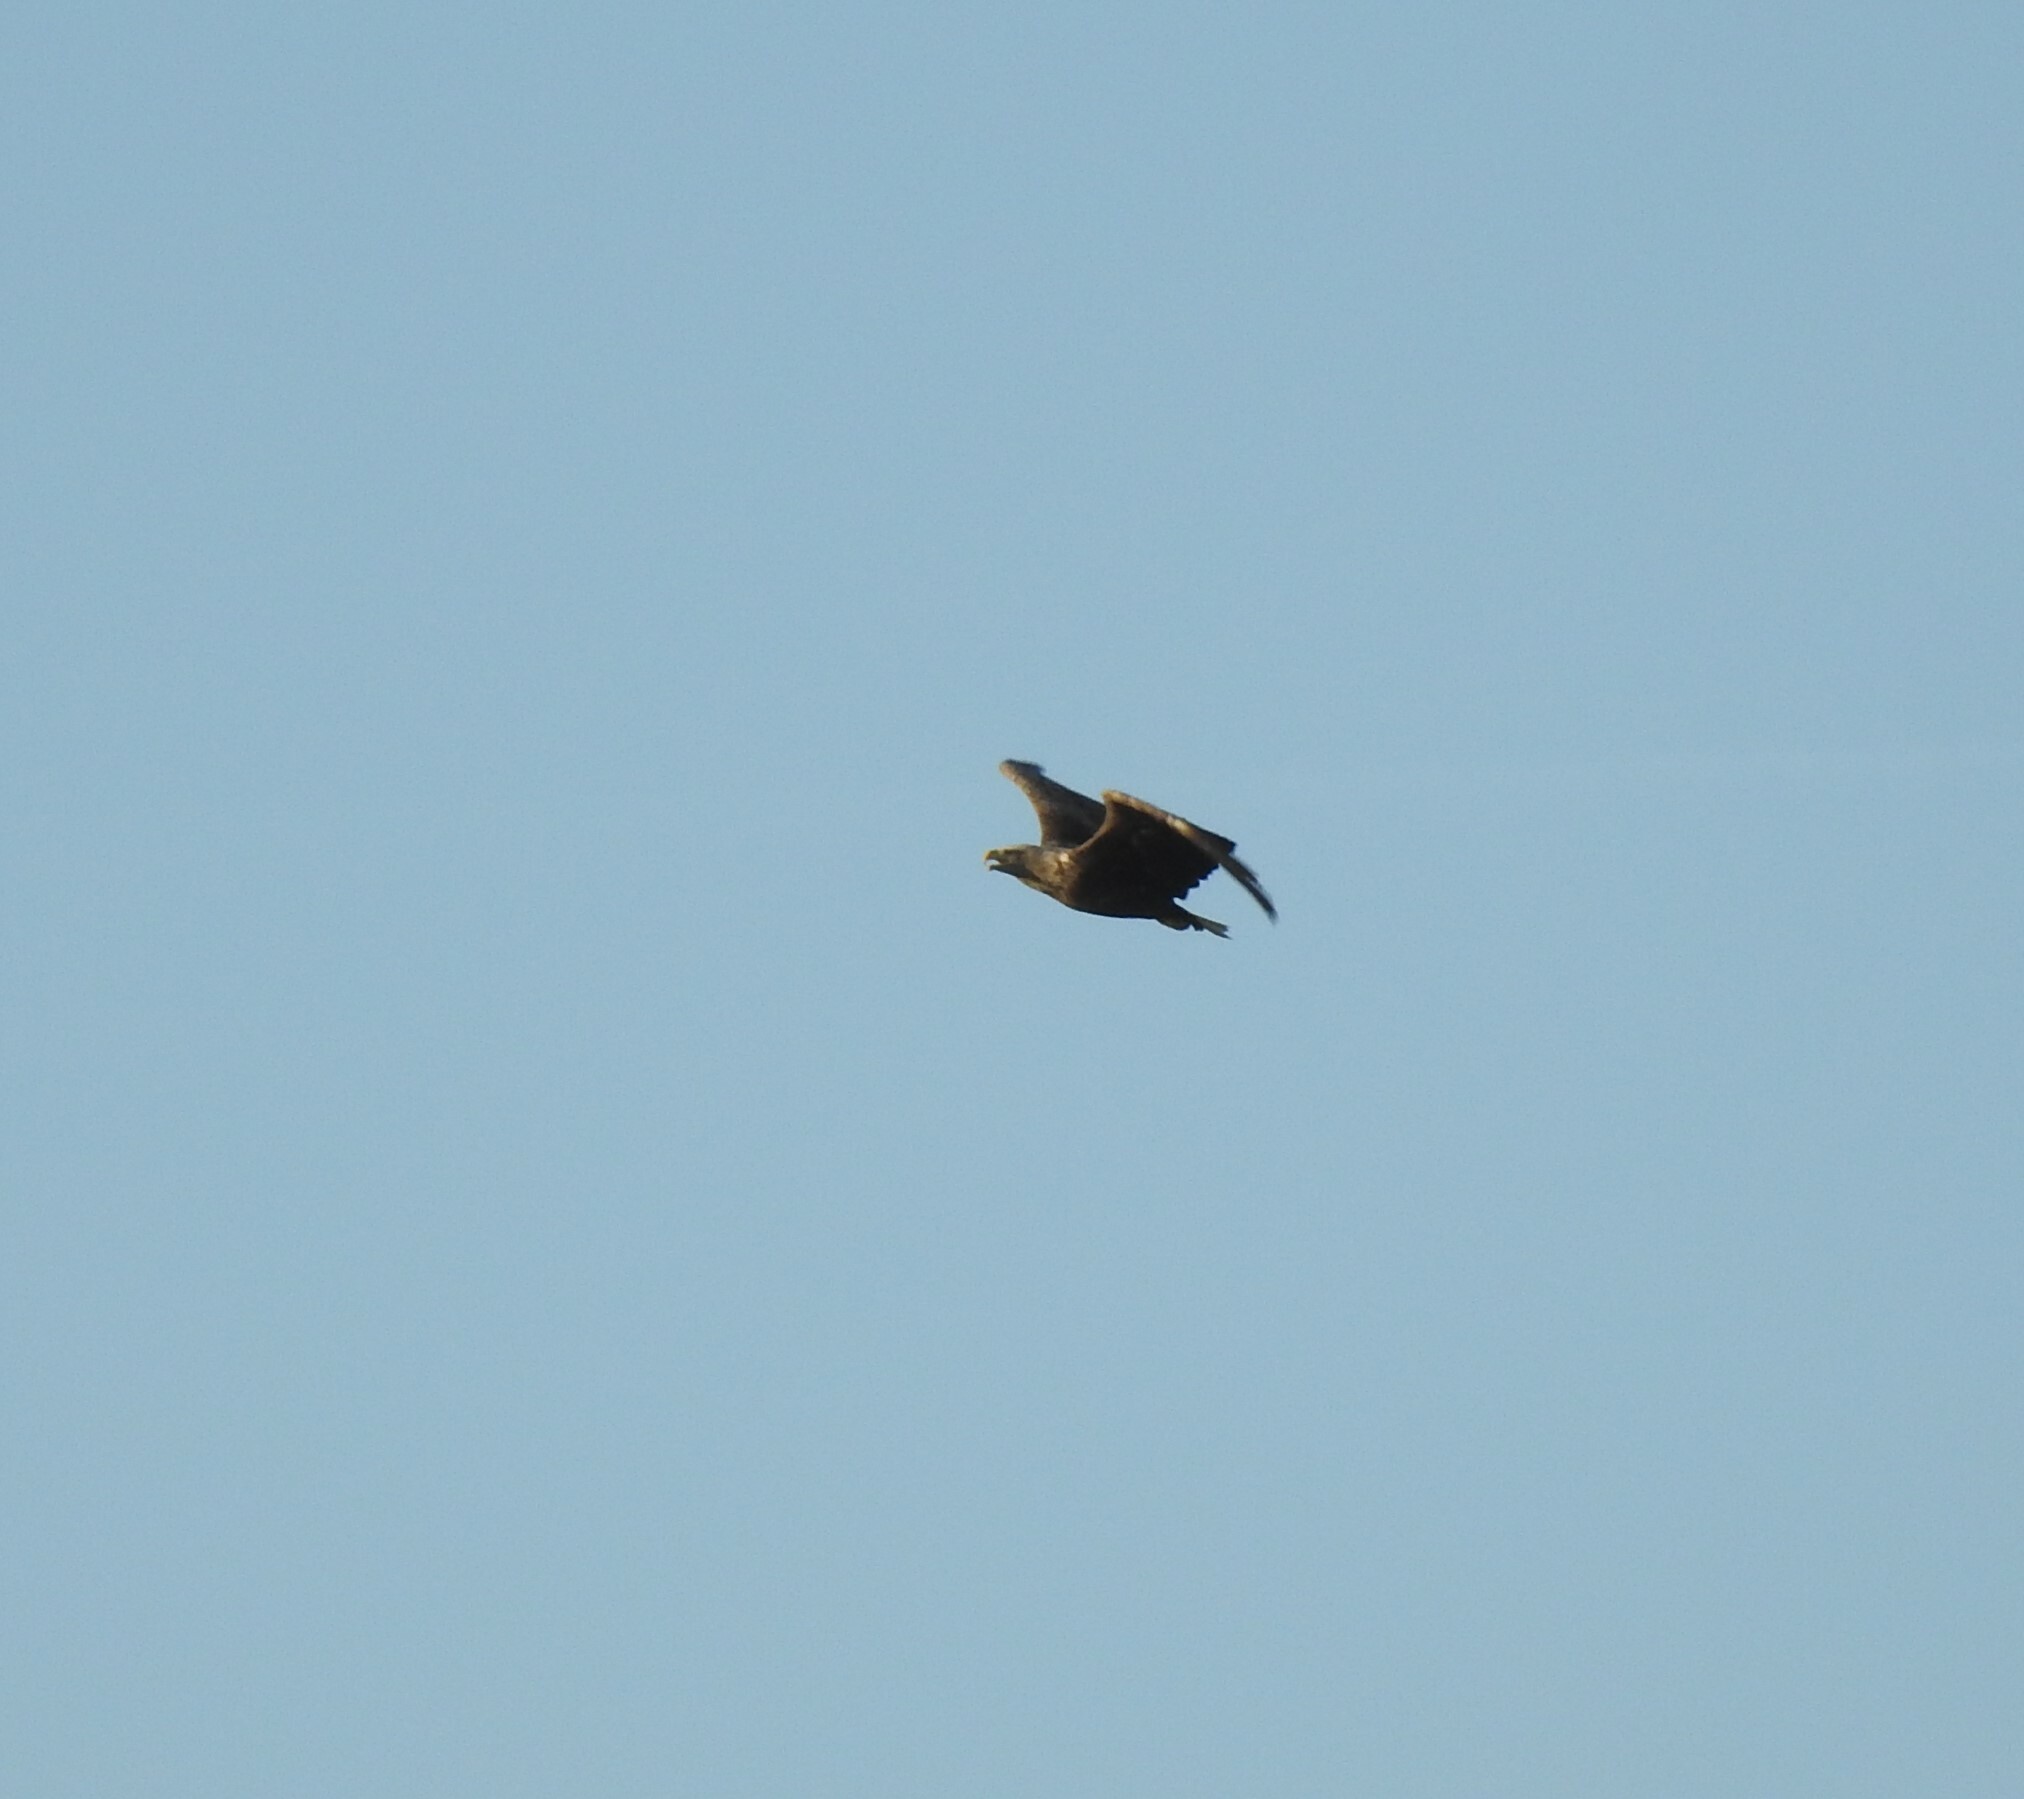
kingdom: Animalia
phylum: Chordata
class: Aves
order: Accipitriformes
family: Accipitridae
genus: Haliaeetus
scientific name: Haliaeetus albicilla
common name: White-tailed eagle
